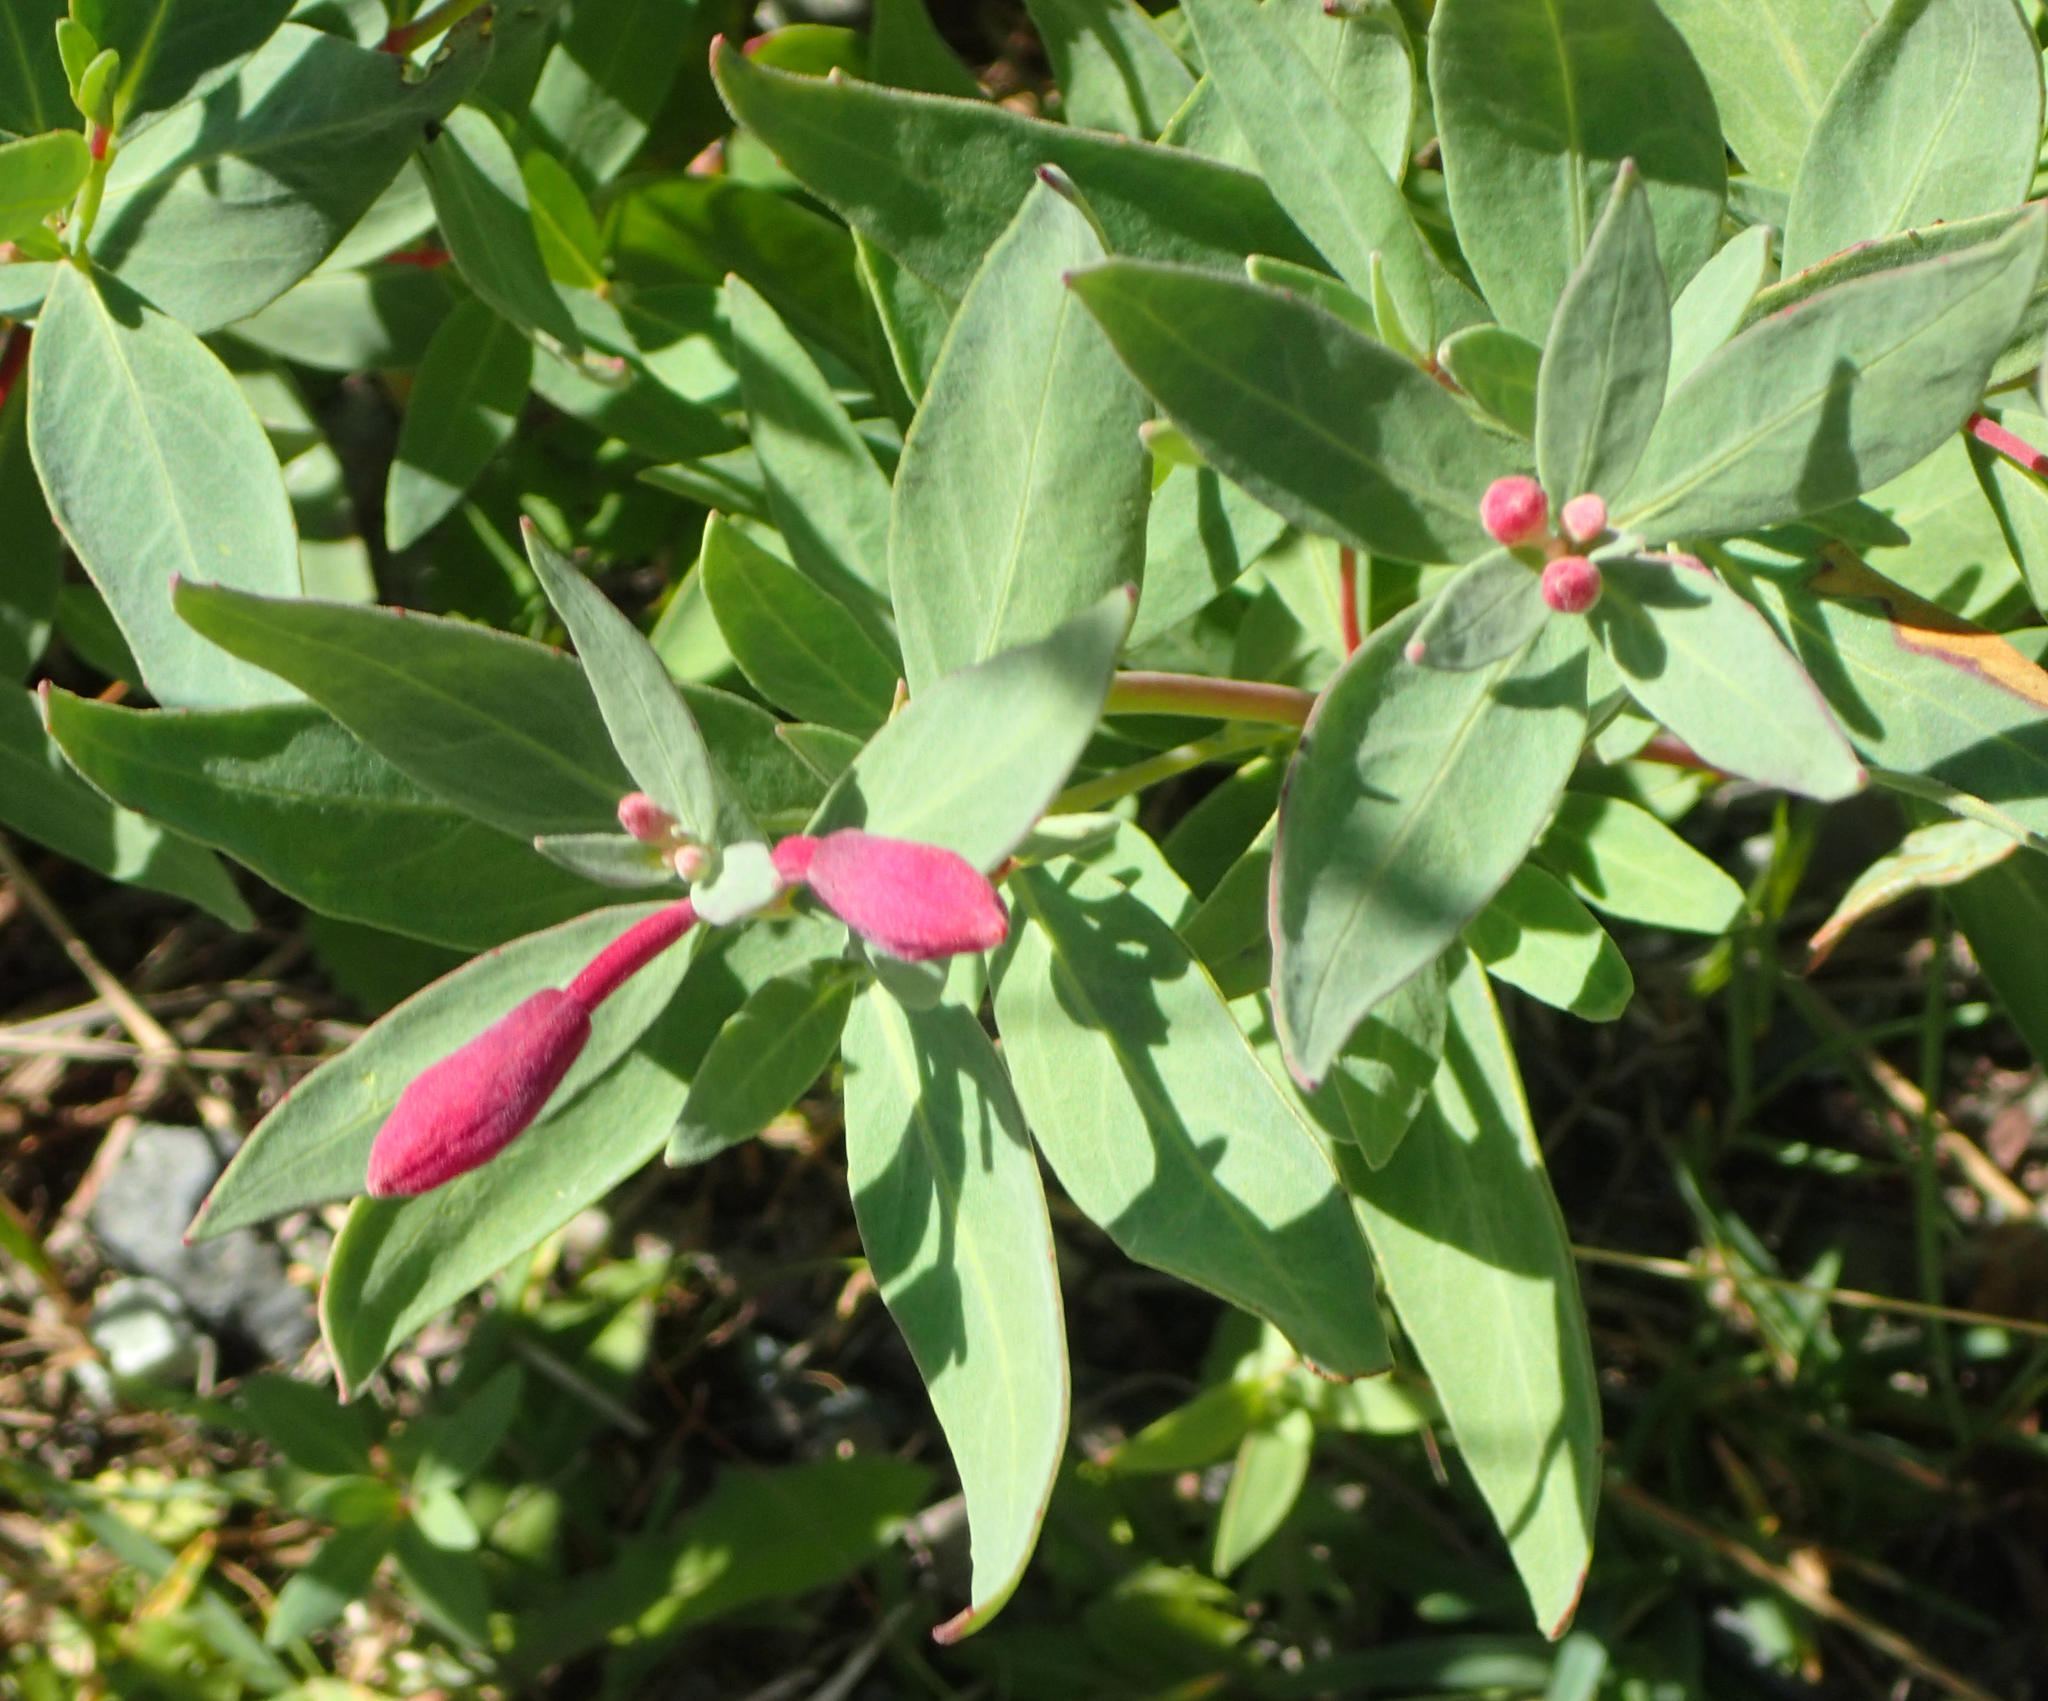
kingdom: Plantae
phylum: Tracheophyta
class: Magnoliopsida
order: Myrtales
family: Onagraceae
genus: Chamaenerion
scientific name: Chamaenerion latifolium
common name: Dwarf fireweed
